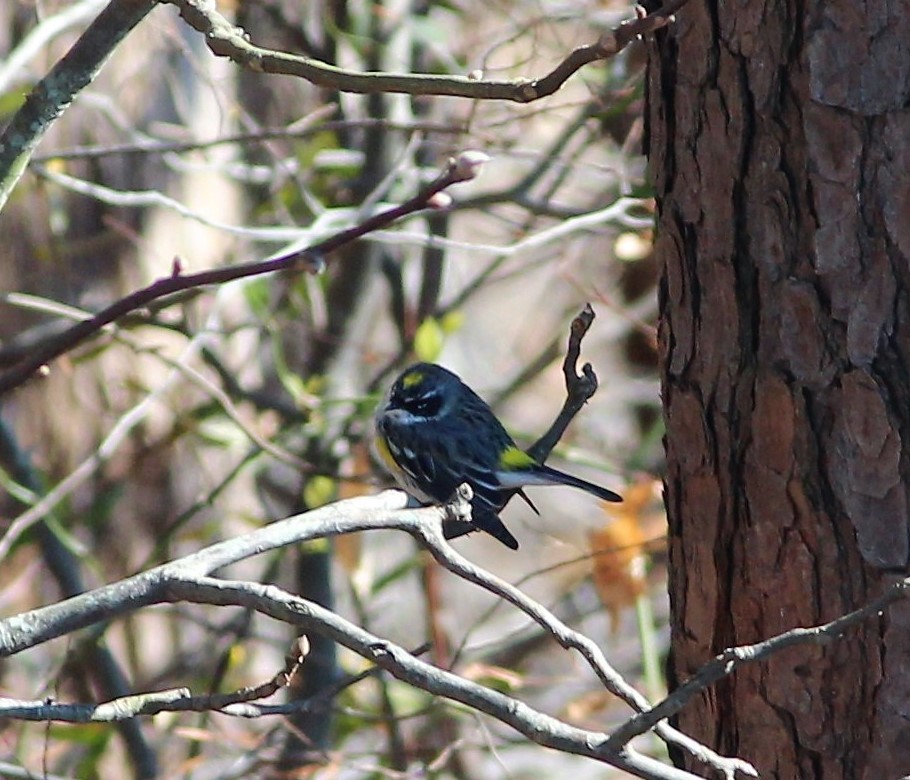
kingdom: Animalia
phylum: Chordata
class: Aves
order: Passeriformes
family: Parulidae
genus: Setophaga
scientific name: Setophaga coronata
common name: Myrtle warbler
